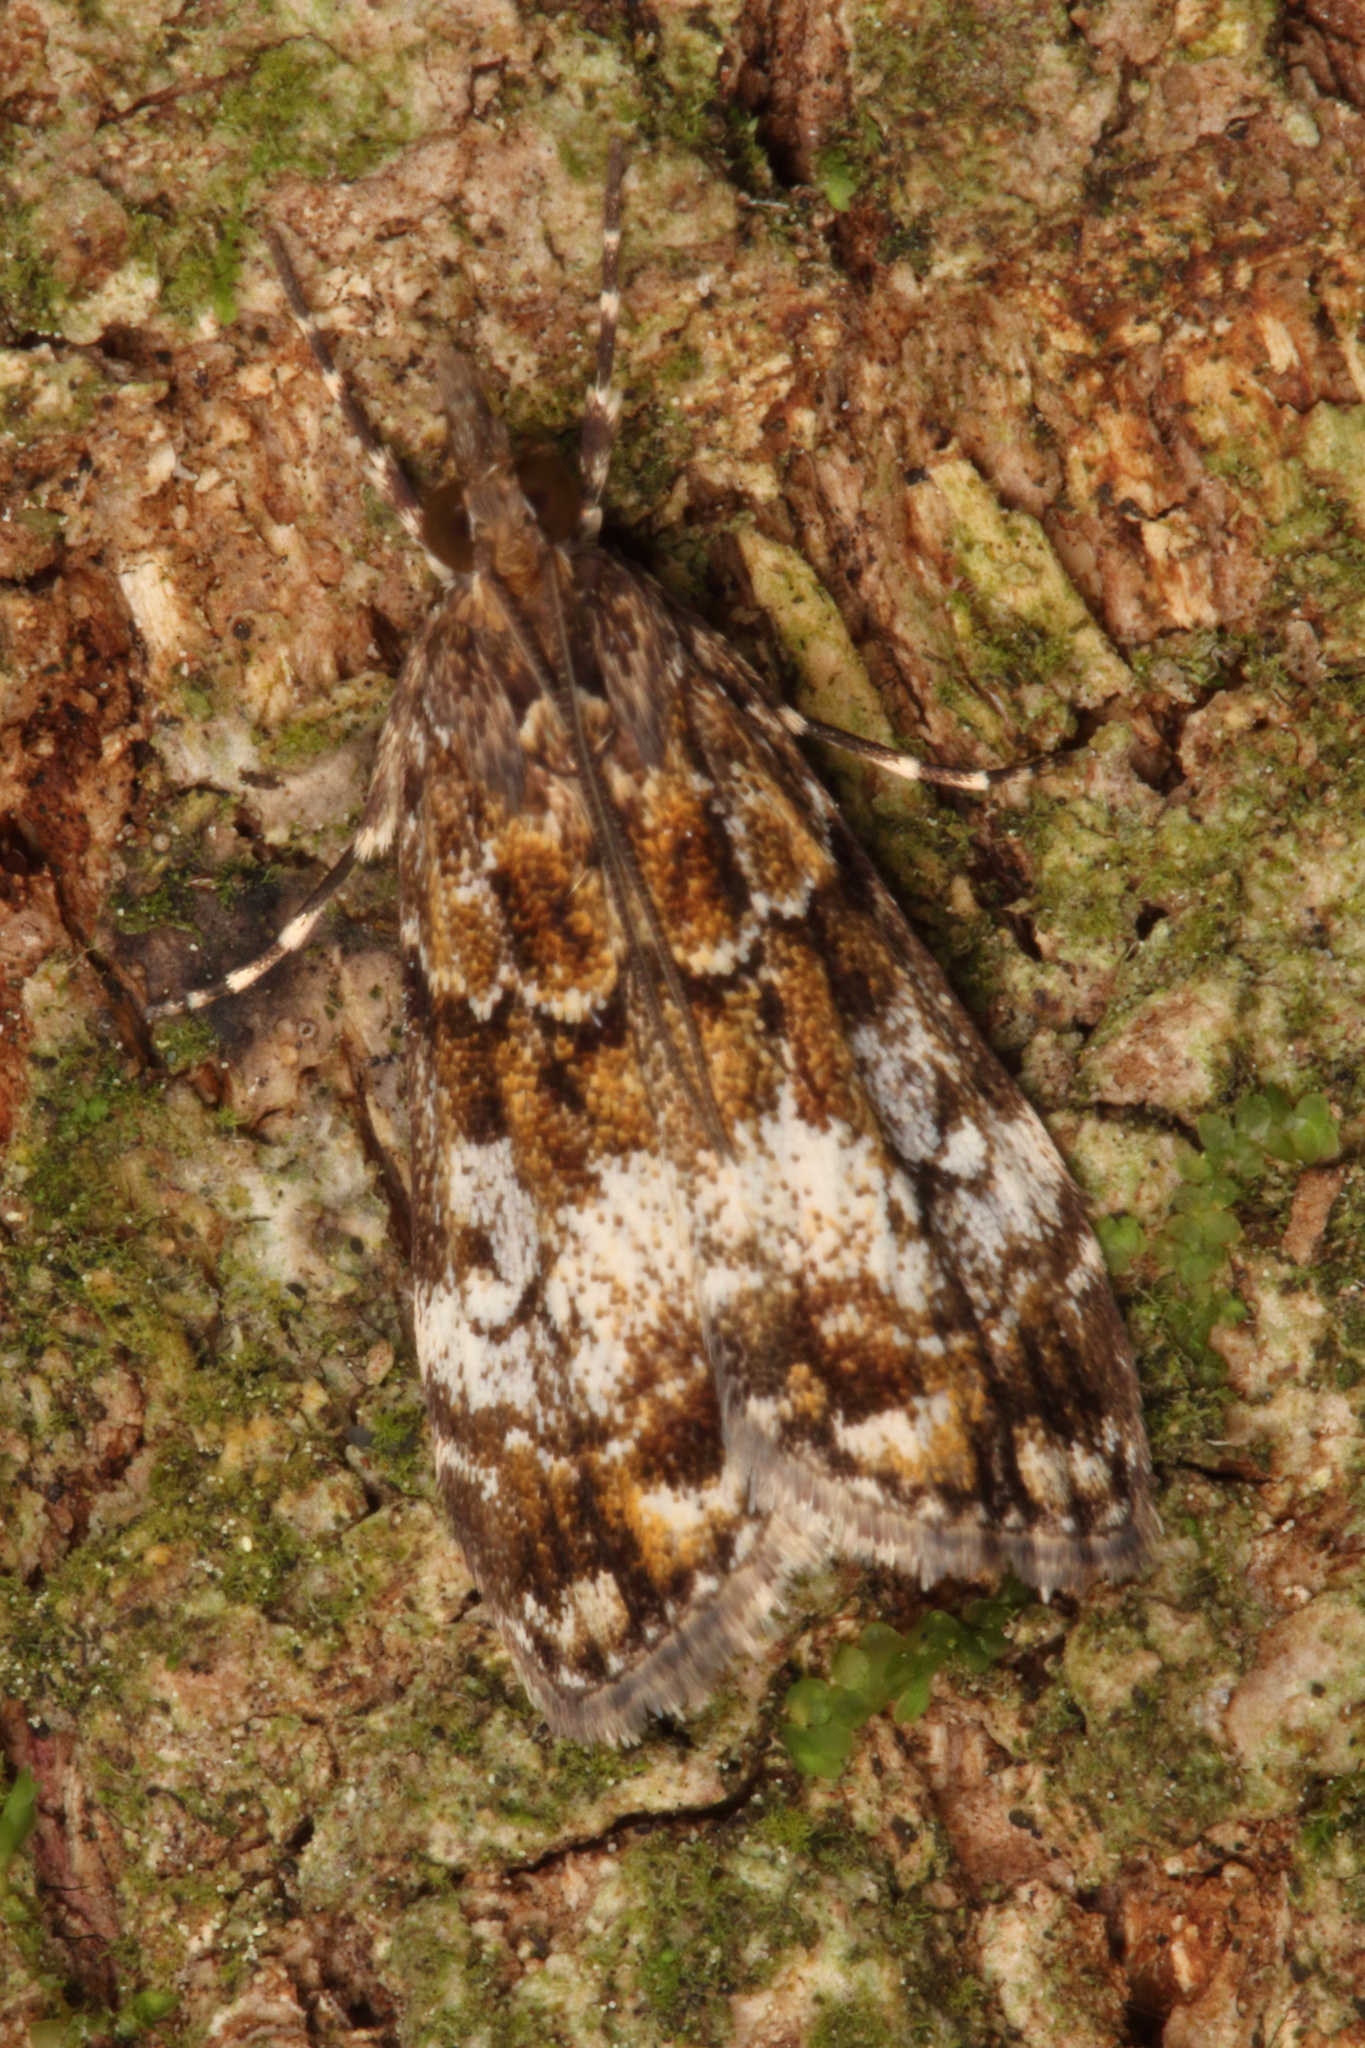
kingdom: Animalia
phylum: Arthropoda
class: Insecta
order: Lepidoptera
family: Crambidae
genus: Scoparia
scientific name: Scoparia minusculalis
